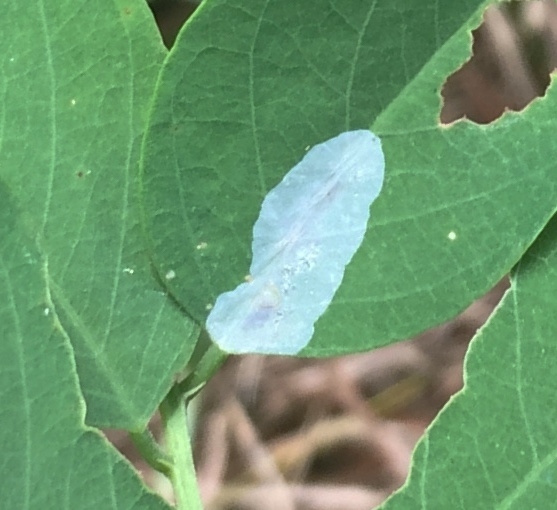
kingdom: Animalia
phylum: Arthropoda
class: Insecta
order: Lepidoptera
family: Gracillariidae
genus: Macrosaccus
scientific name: Macrosaccus robiniella
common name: Leaf blotch miner moth
